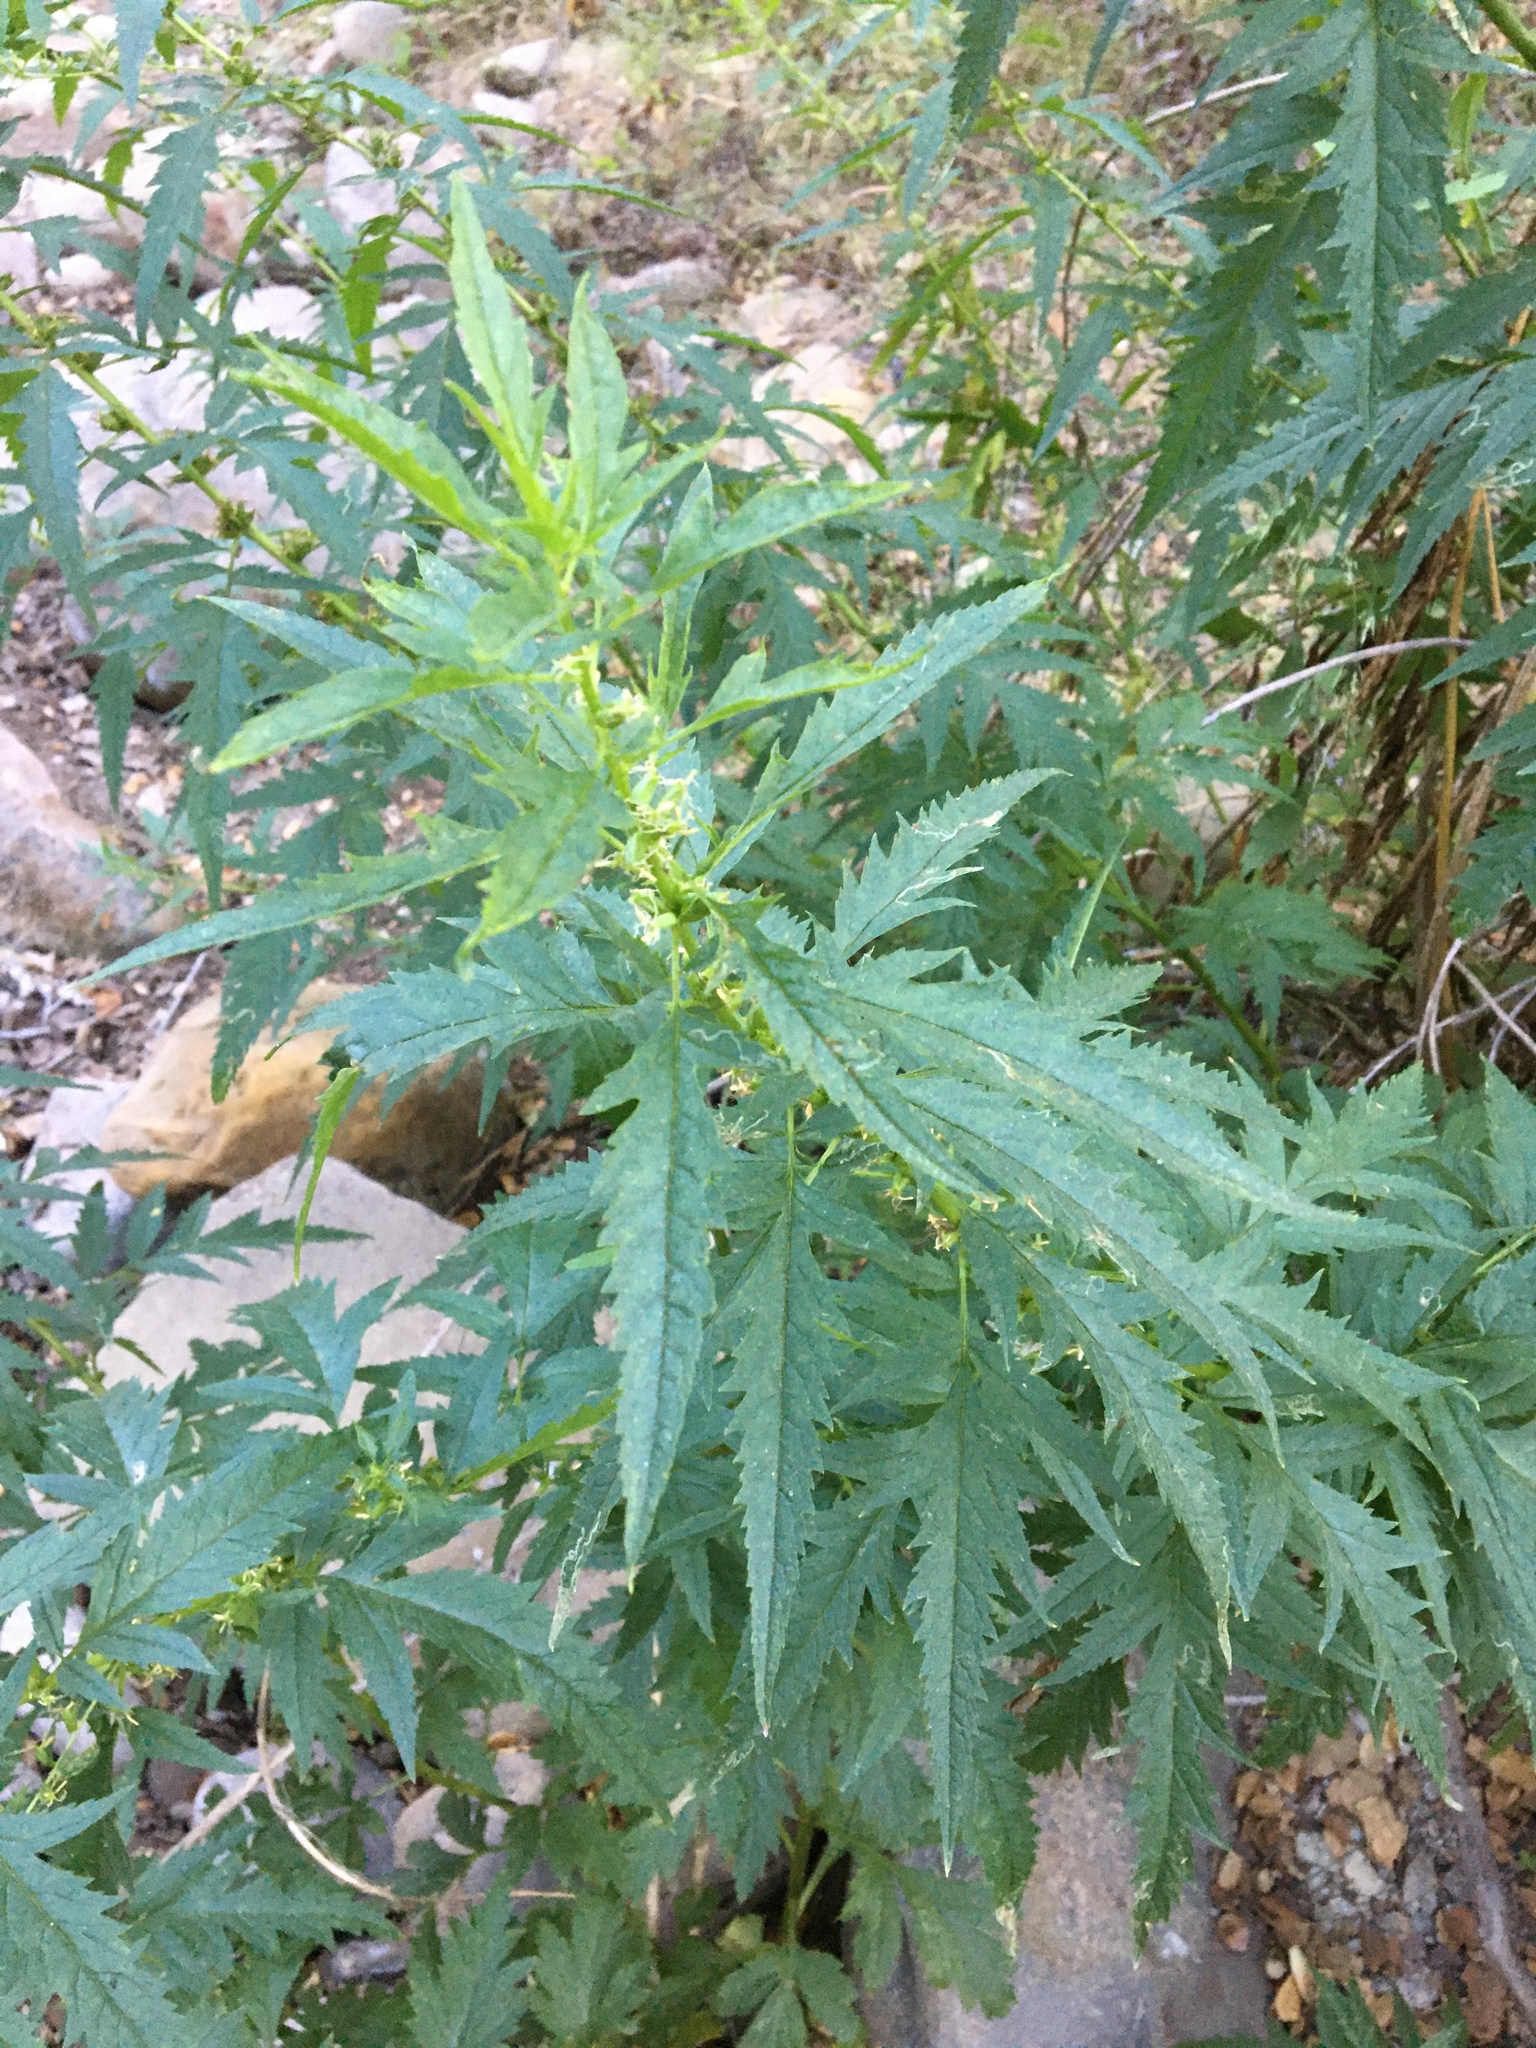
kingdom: Plantae
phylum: Tracheophyta
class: Magnoliopsida
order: Cucurbitales
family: Datiscaceae
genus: Datisca
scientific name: Datisca glomerata
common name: Durango-root
